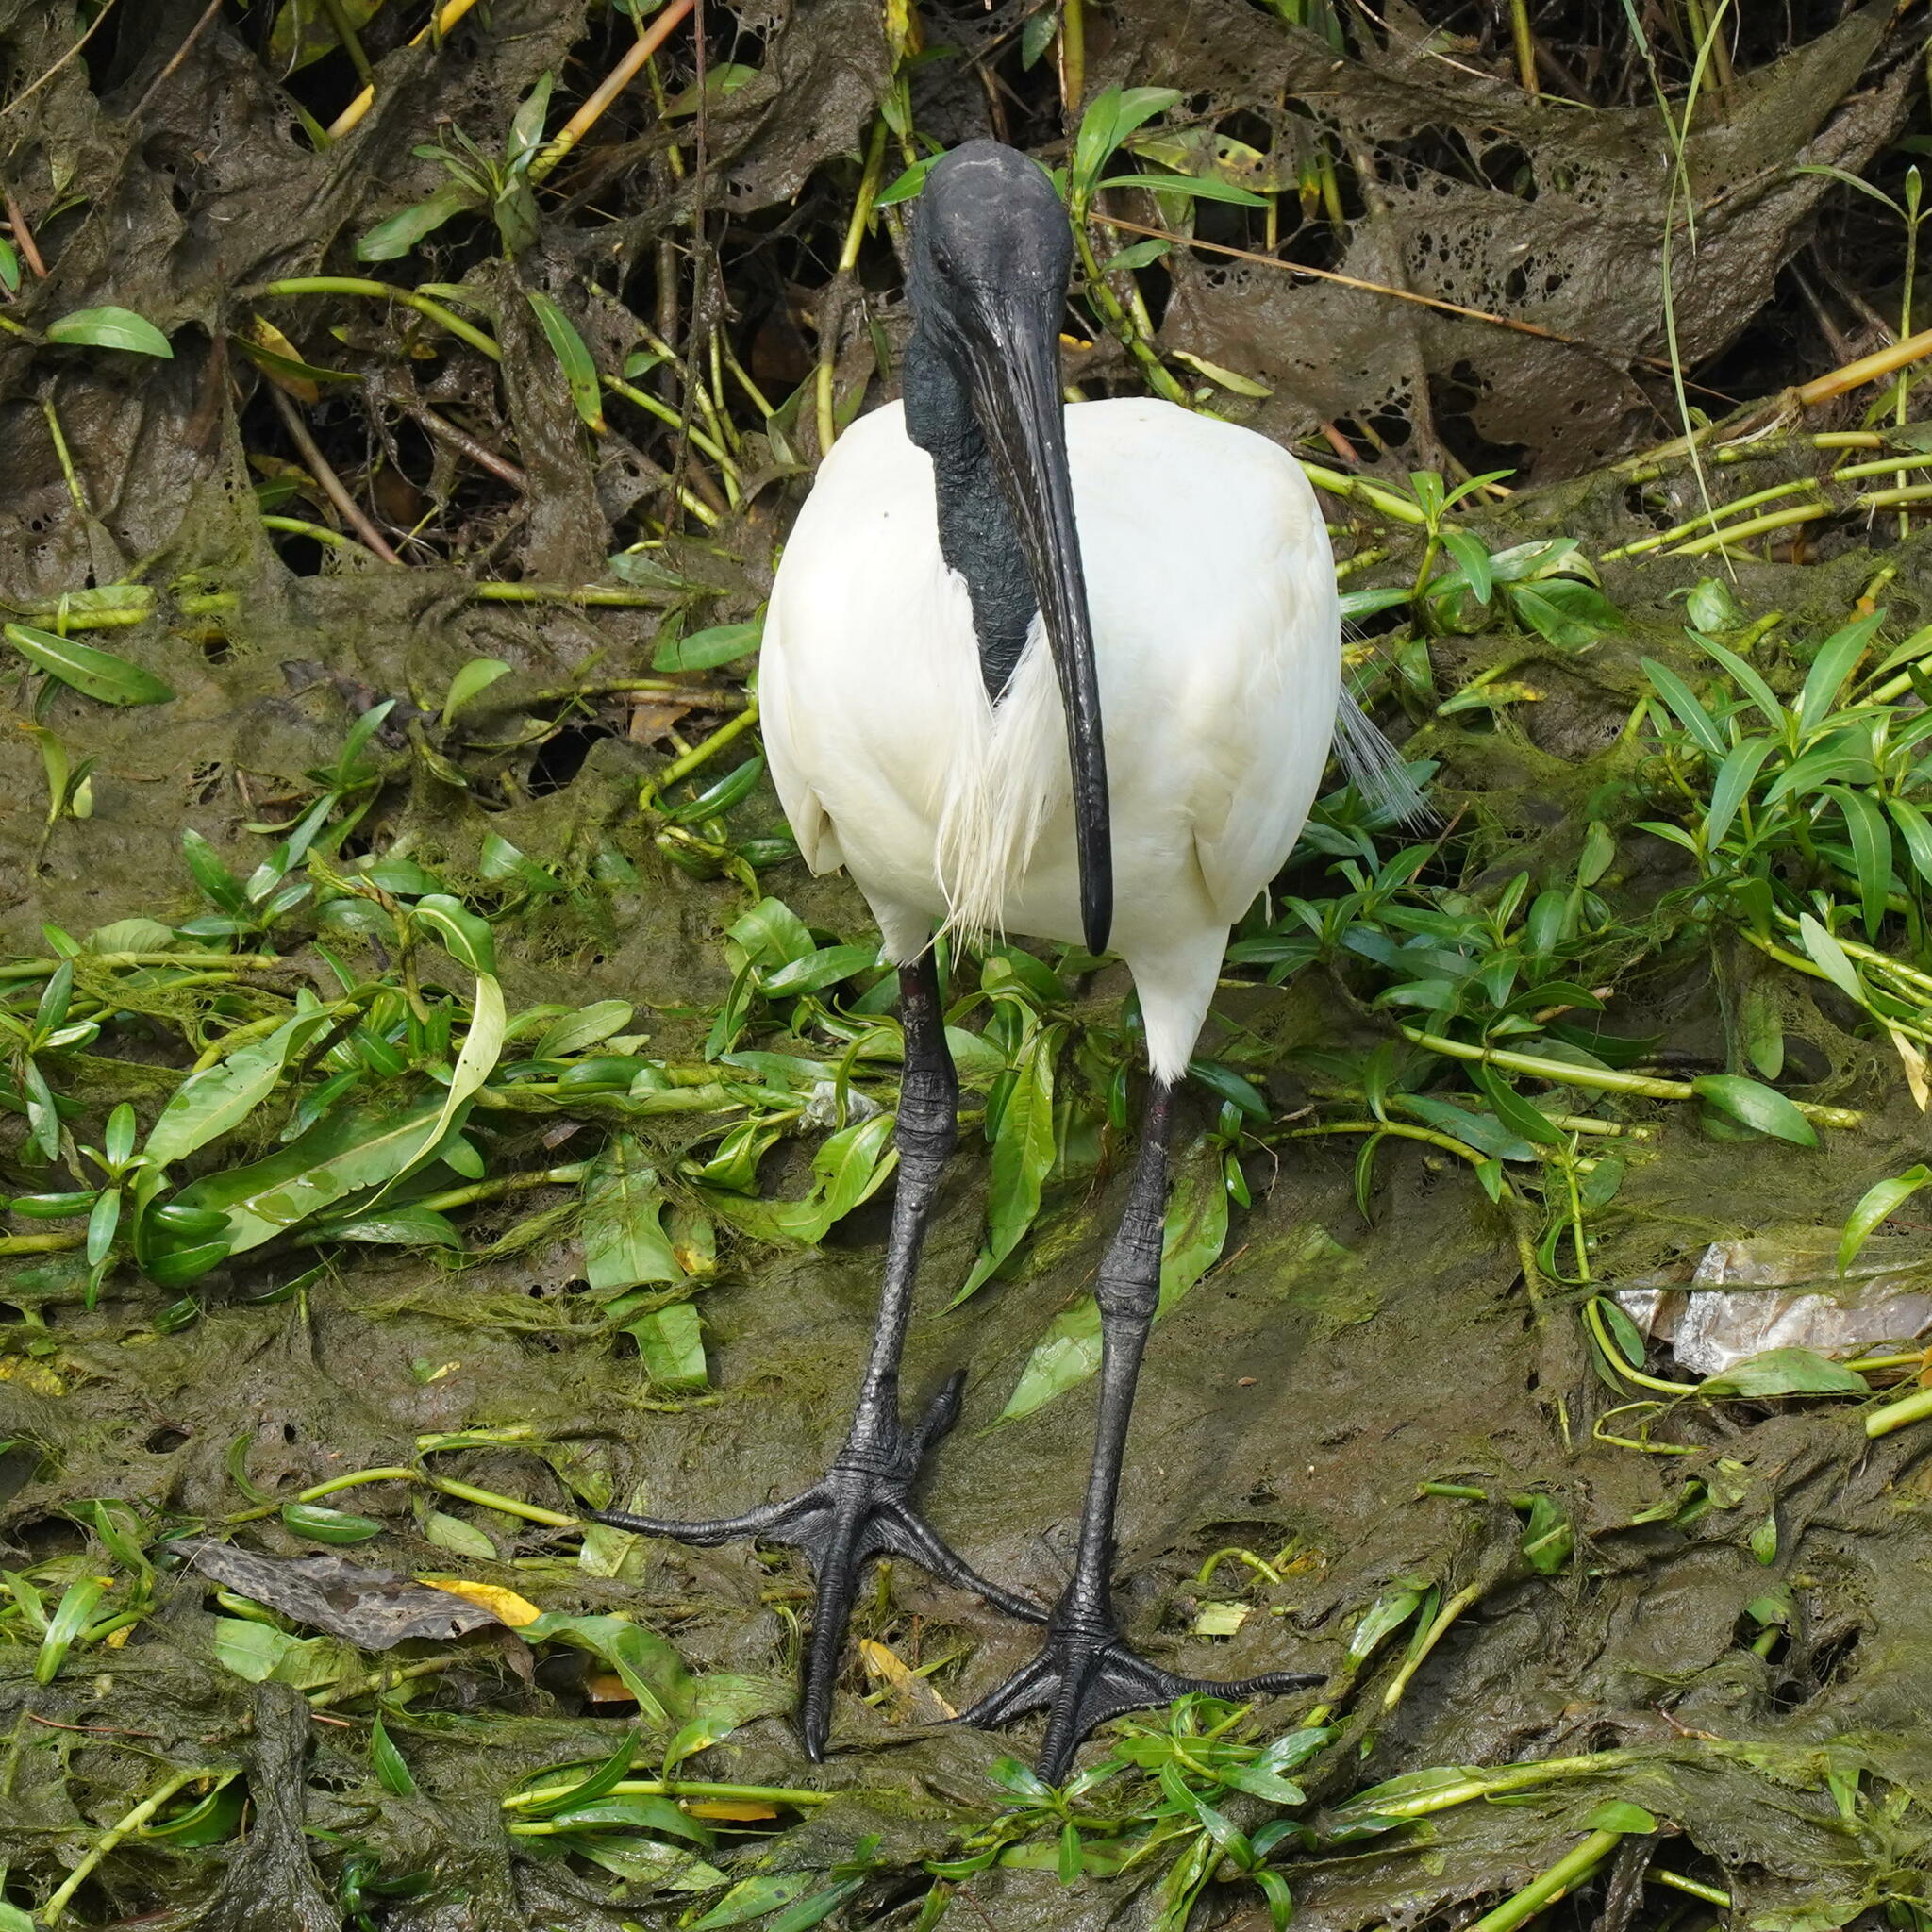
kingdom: Animalia
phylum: Chordata
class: Aves
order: Pelecaniformes
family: Threskiornithidae
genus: Threskiornis
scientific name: Threskiornis melanocephalus
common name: Black-headed ibis
